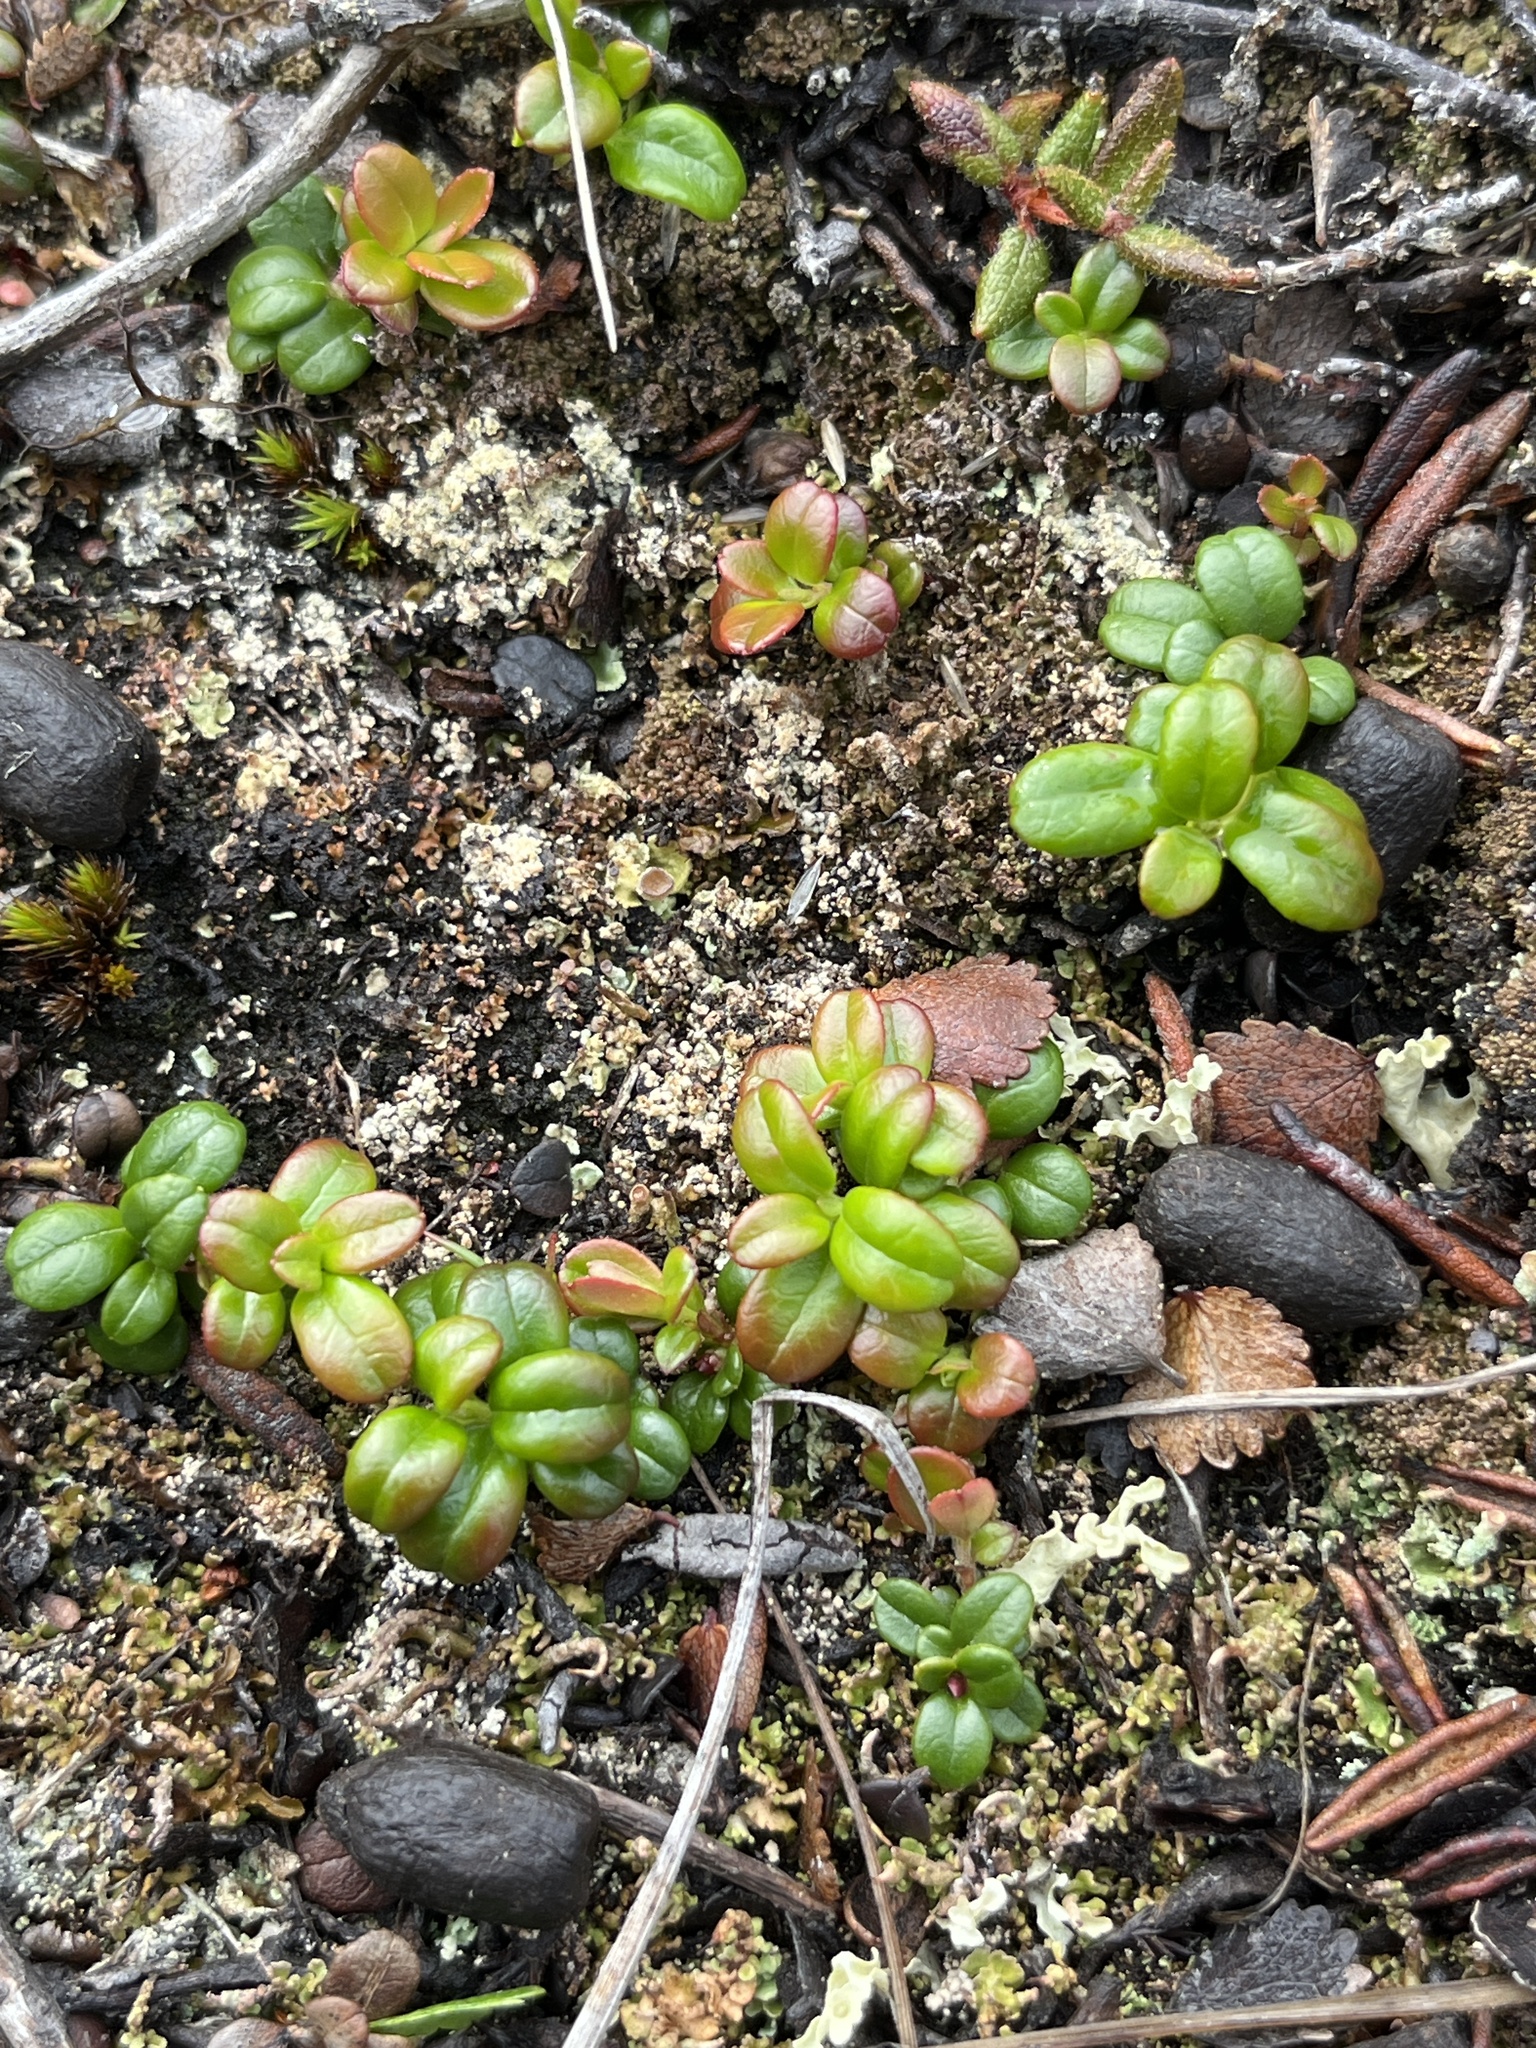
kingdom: Plantae
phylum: Tracheophyta
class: Magnoliopsida
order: Ericales
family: Ericaceae
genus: Vaccinium
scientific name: Vaccinium vitis-idaea
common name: Cowberry
